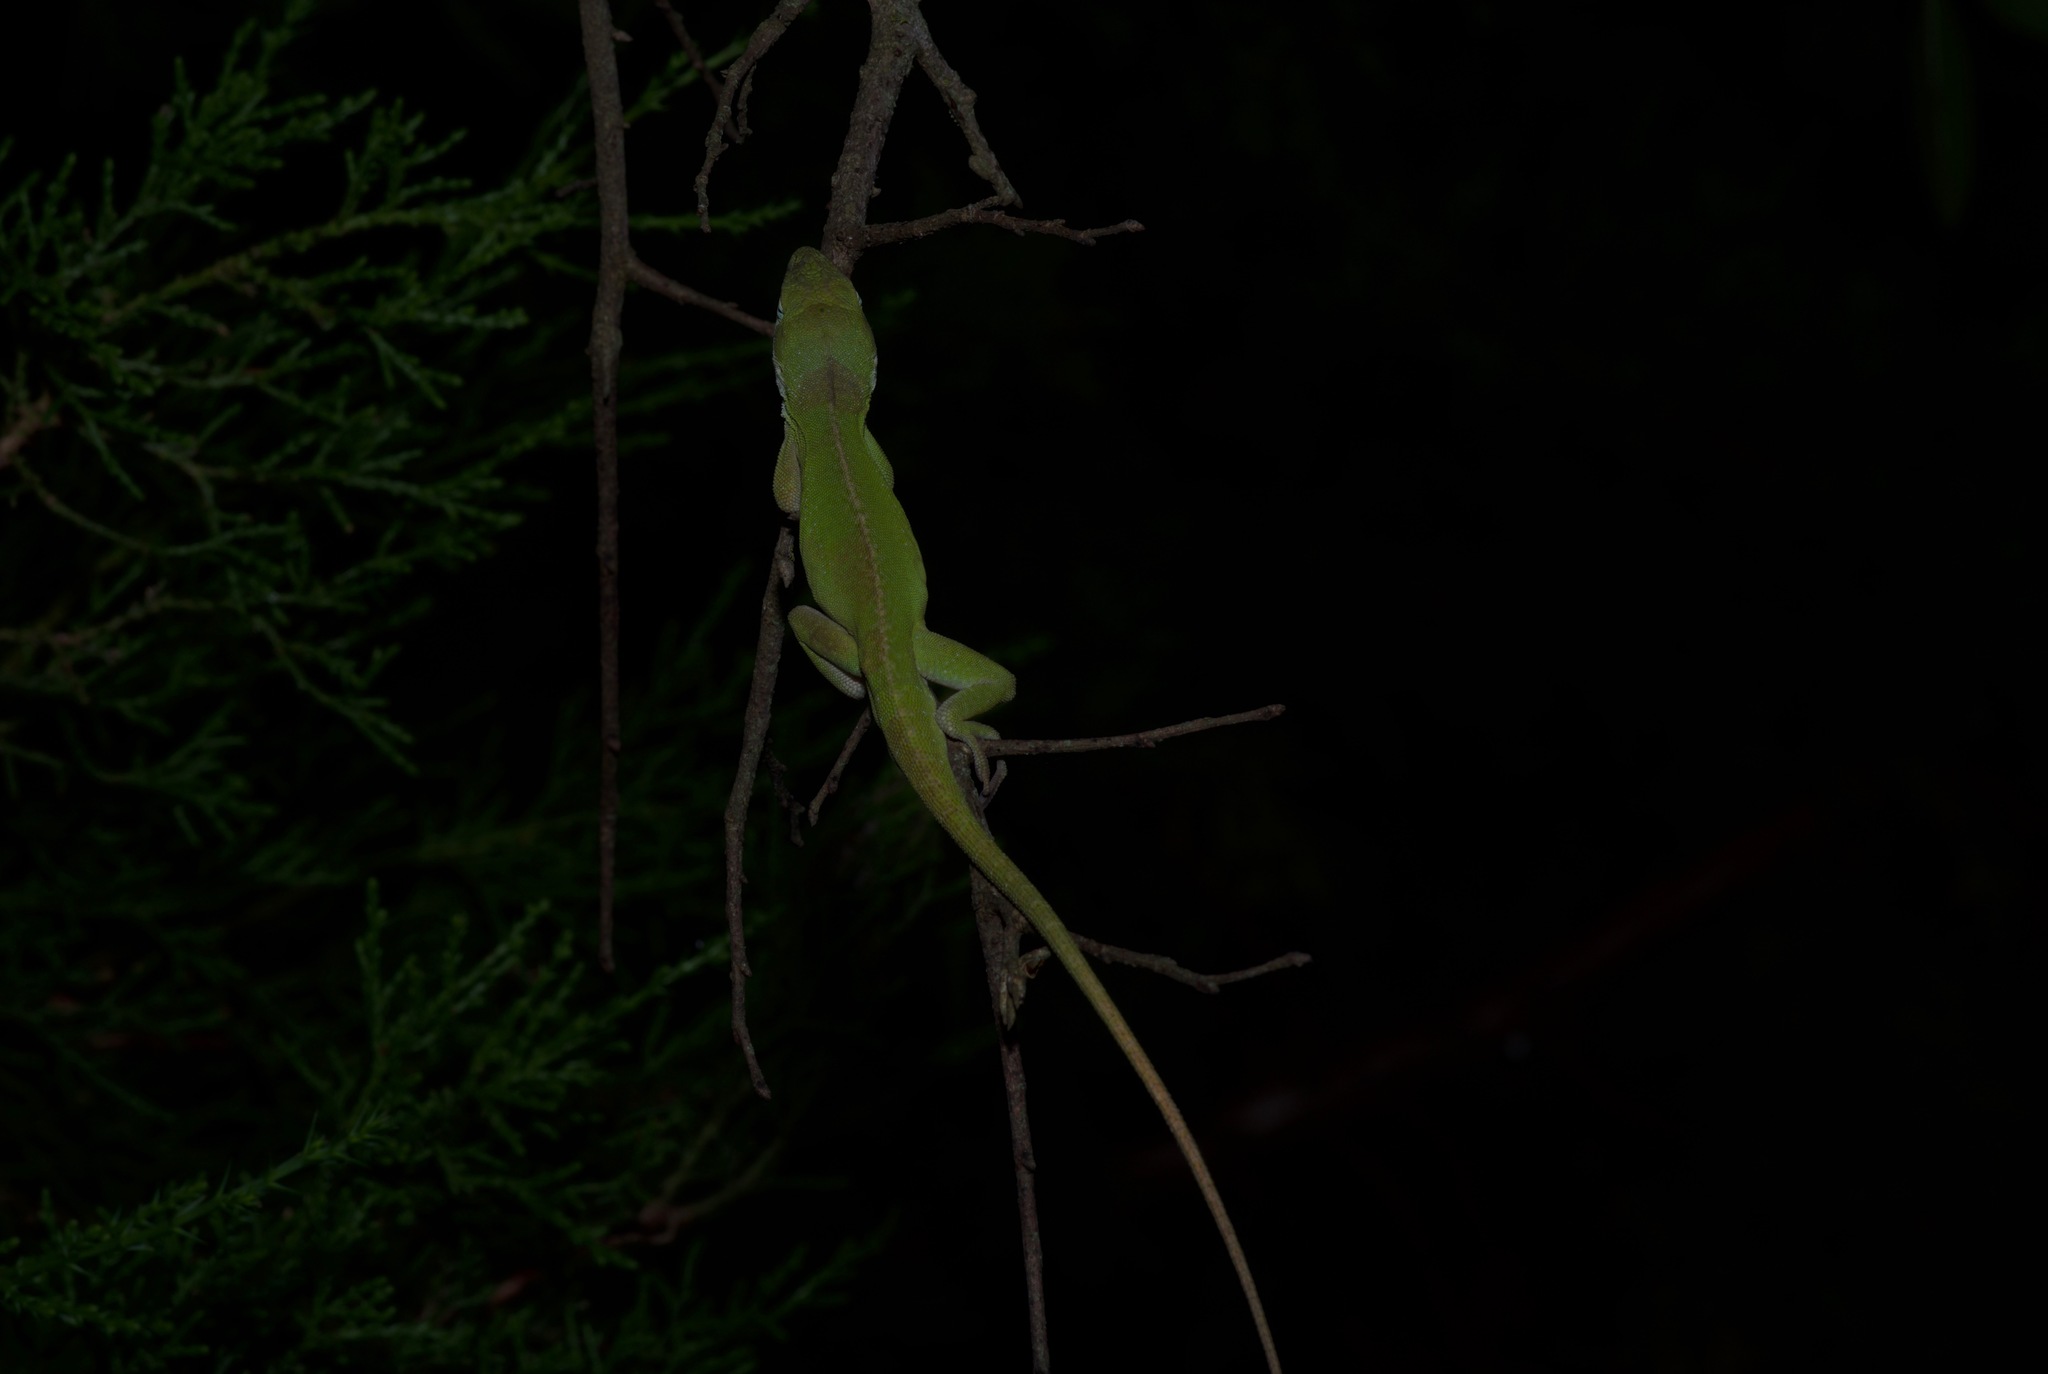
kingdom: Animalia
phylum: Chordata
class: Squamata
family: Dactyloidae
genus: Anolis
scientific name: Anolis carolinensis
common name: Green anole
